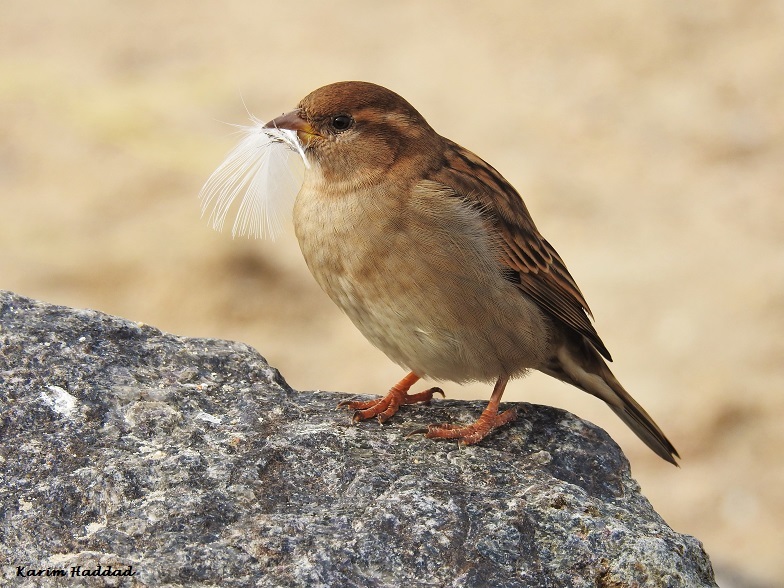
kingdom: Animalia
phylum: Chordata
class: Aves
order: Passeriformes
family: Passeridae
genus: Passer
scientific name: Passer domesticus
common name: House sparrow
